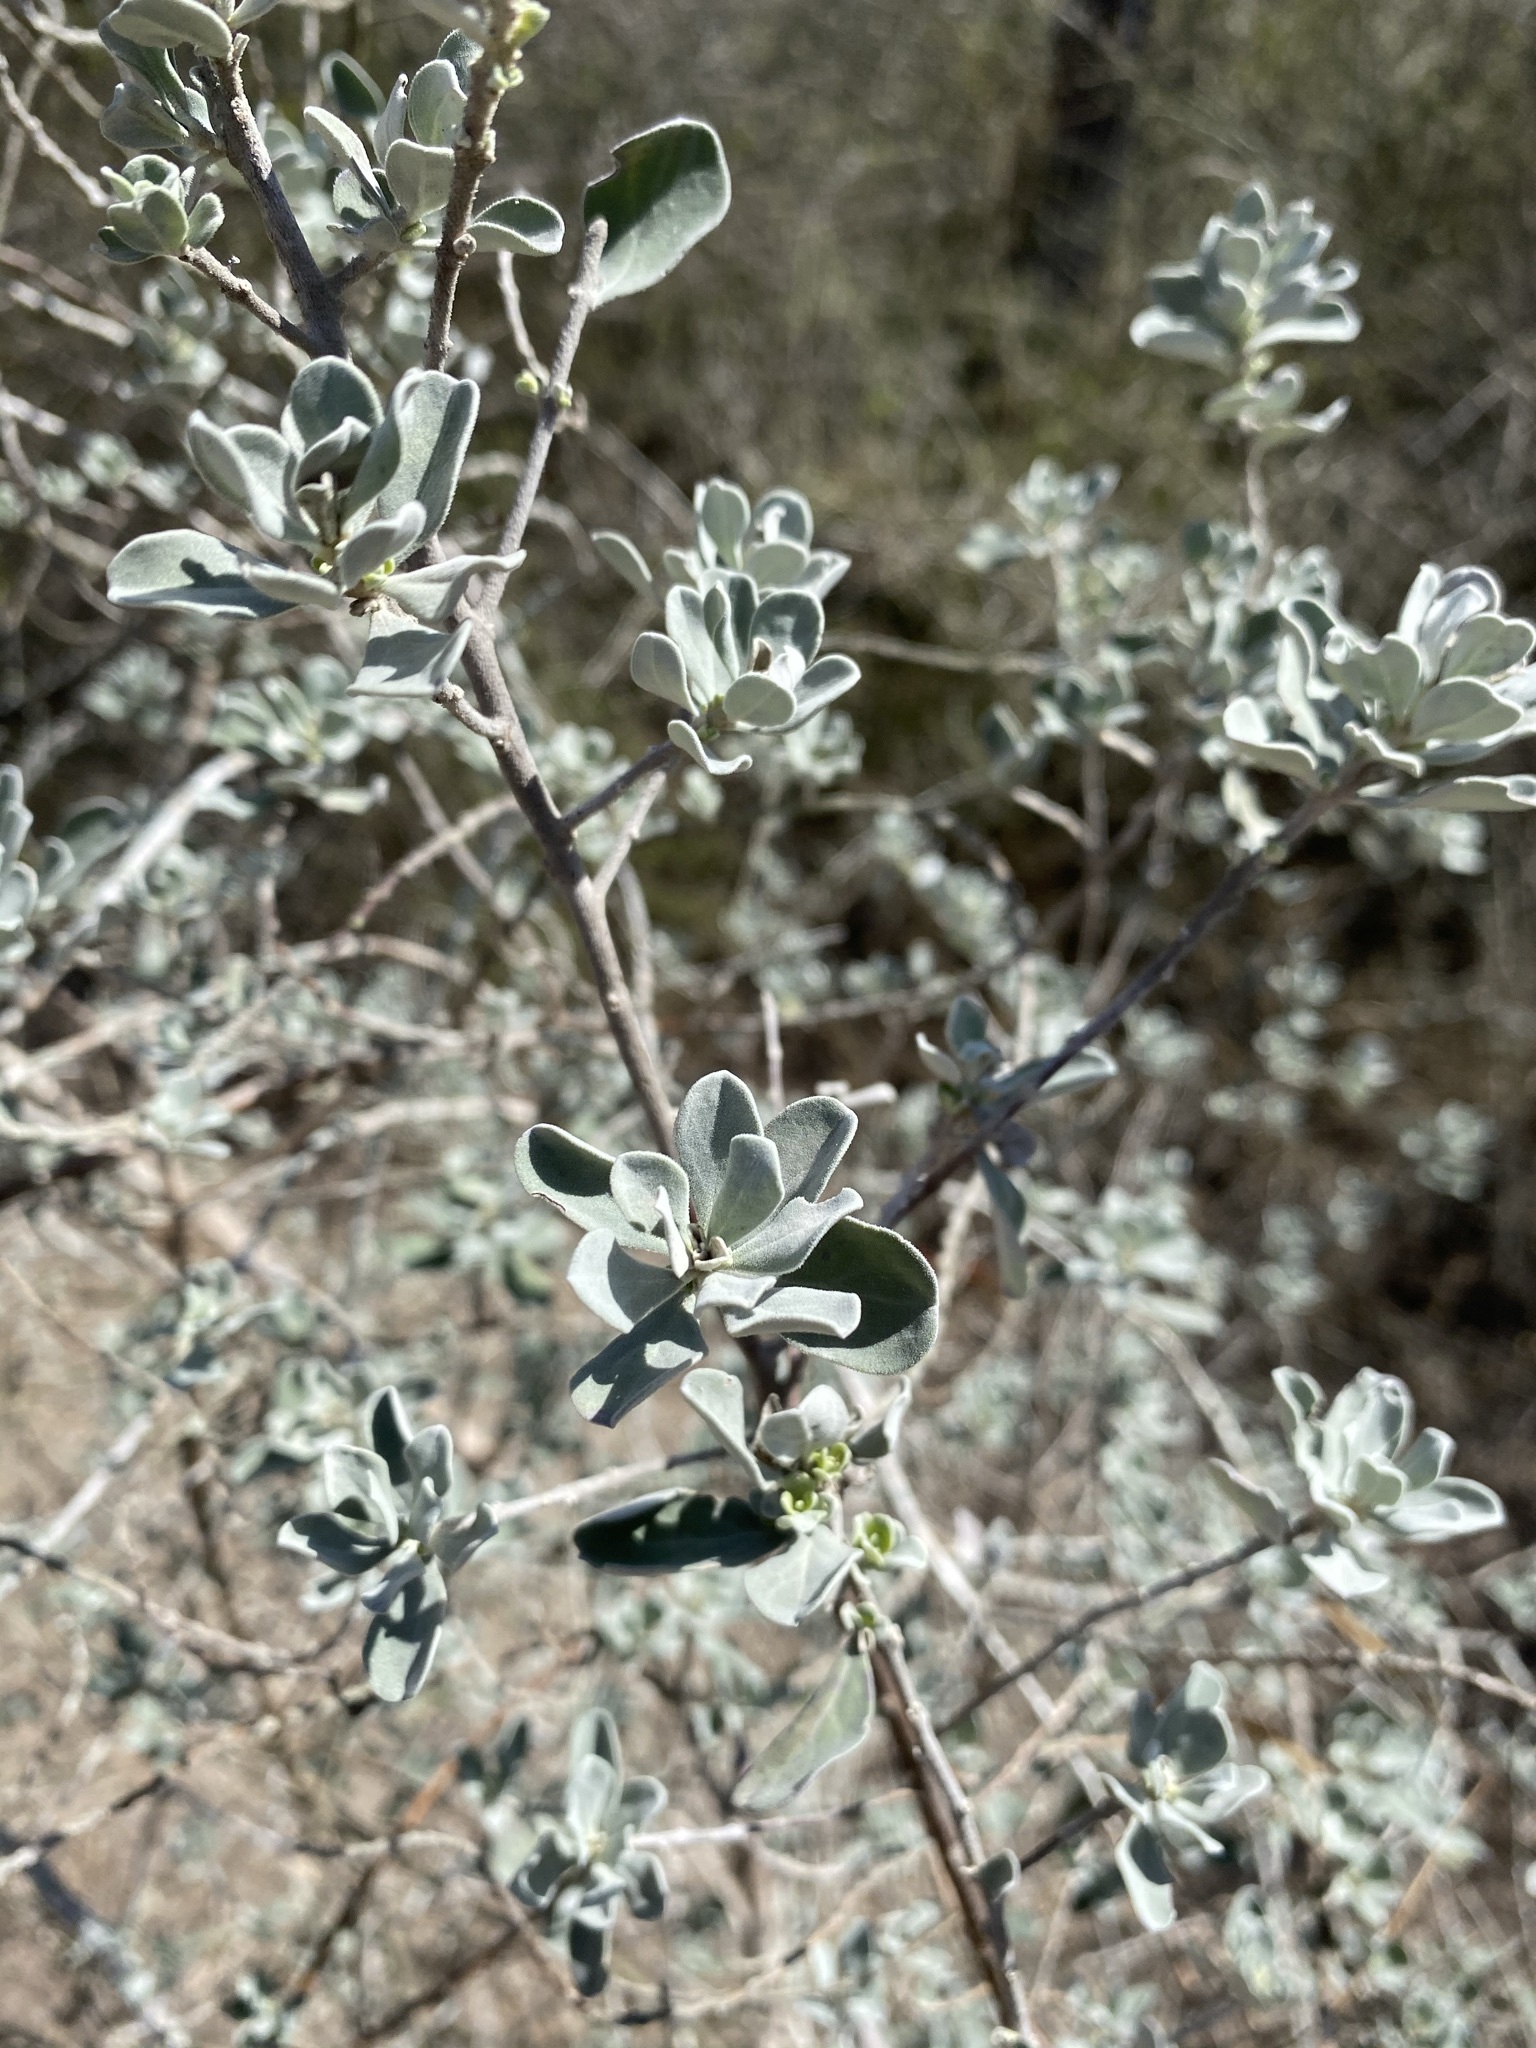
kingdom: Plantae
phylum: Tracheophyta
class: Magnoliopsida
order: Lamiales
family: Scrophulariaceae
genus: Leucophyllum
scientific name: Leucophyllum frutescens
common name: Texas silverleaf
